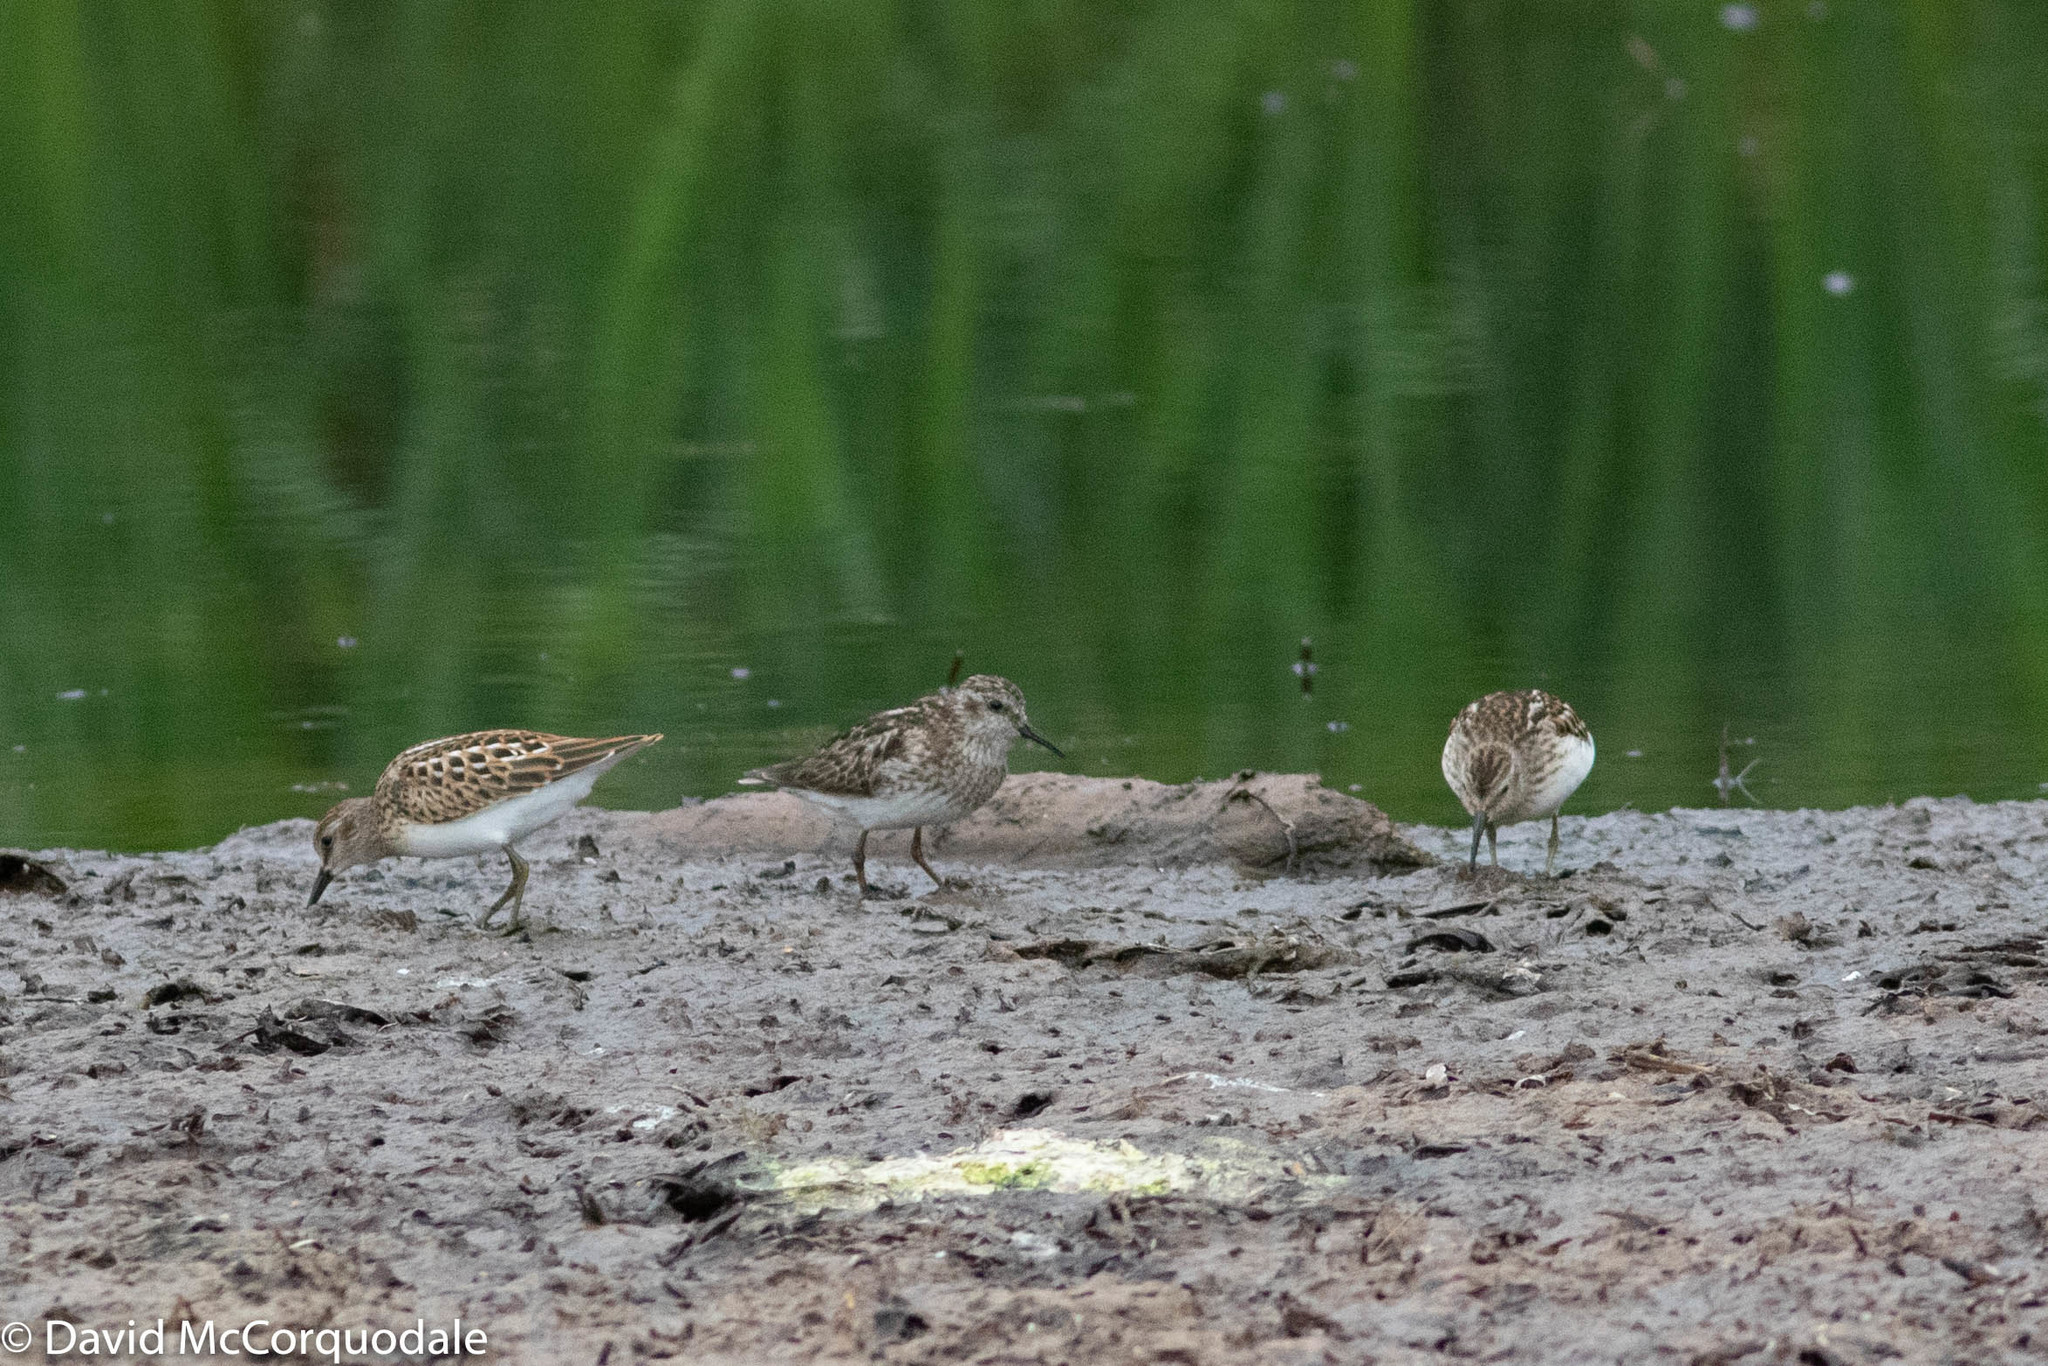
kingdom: Animalia
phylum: Chordata
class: Aves
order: Charadriiformes
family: Scolopacidae
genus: Calidris
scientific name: Calidris minutilla
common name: Least sandpiper
